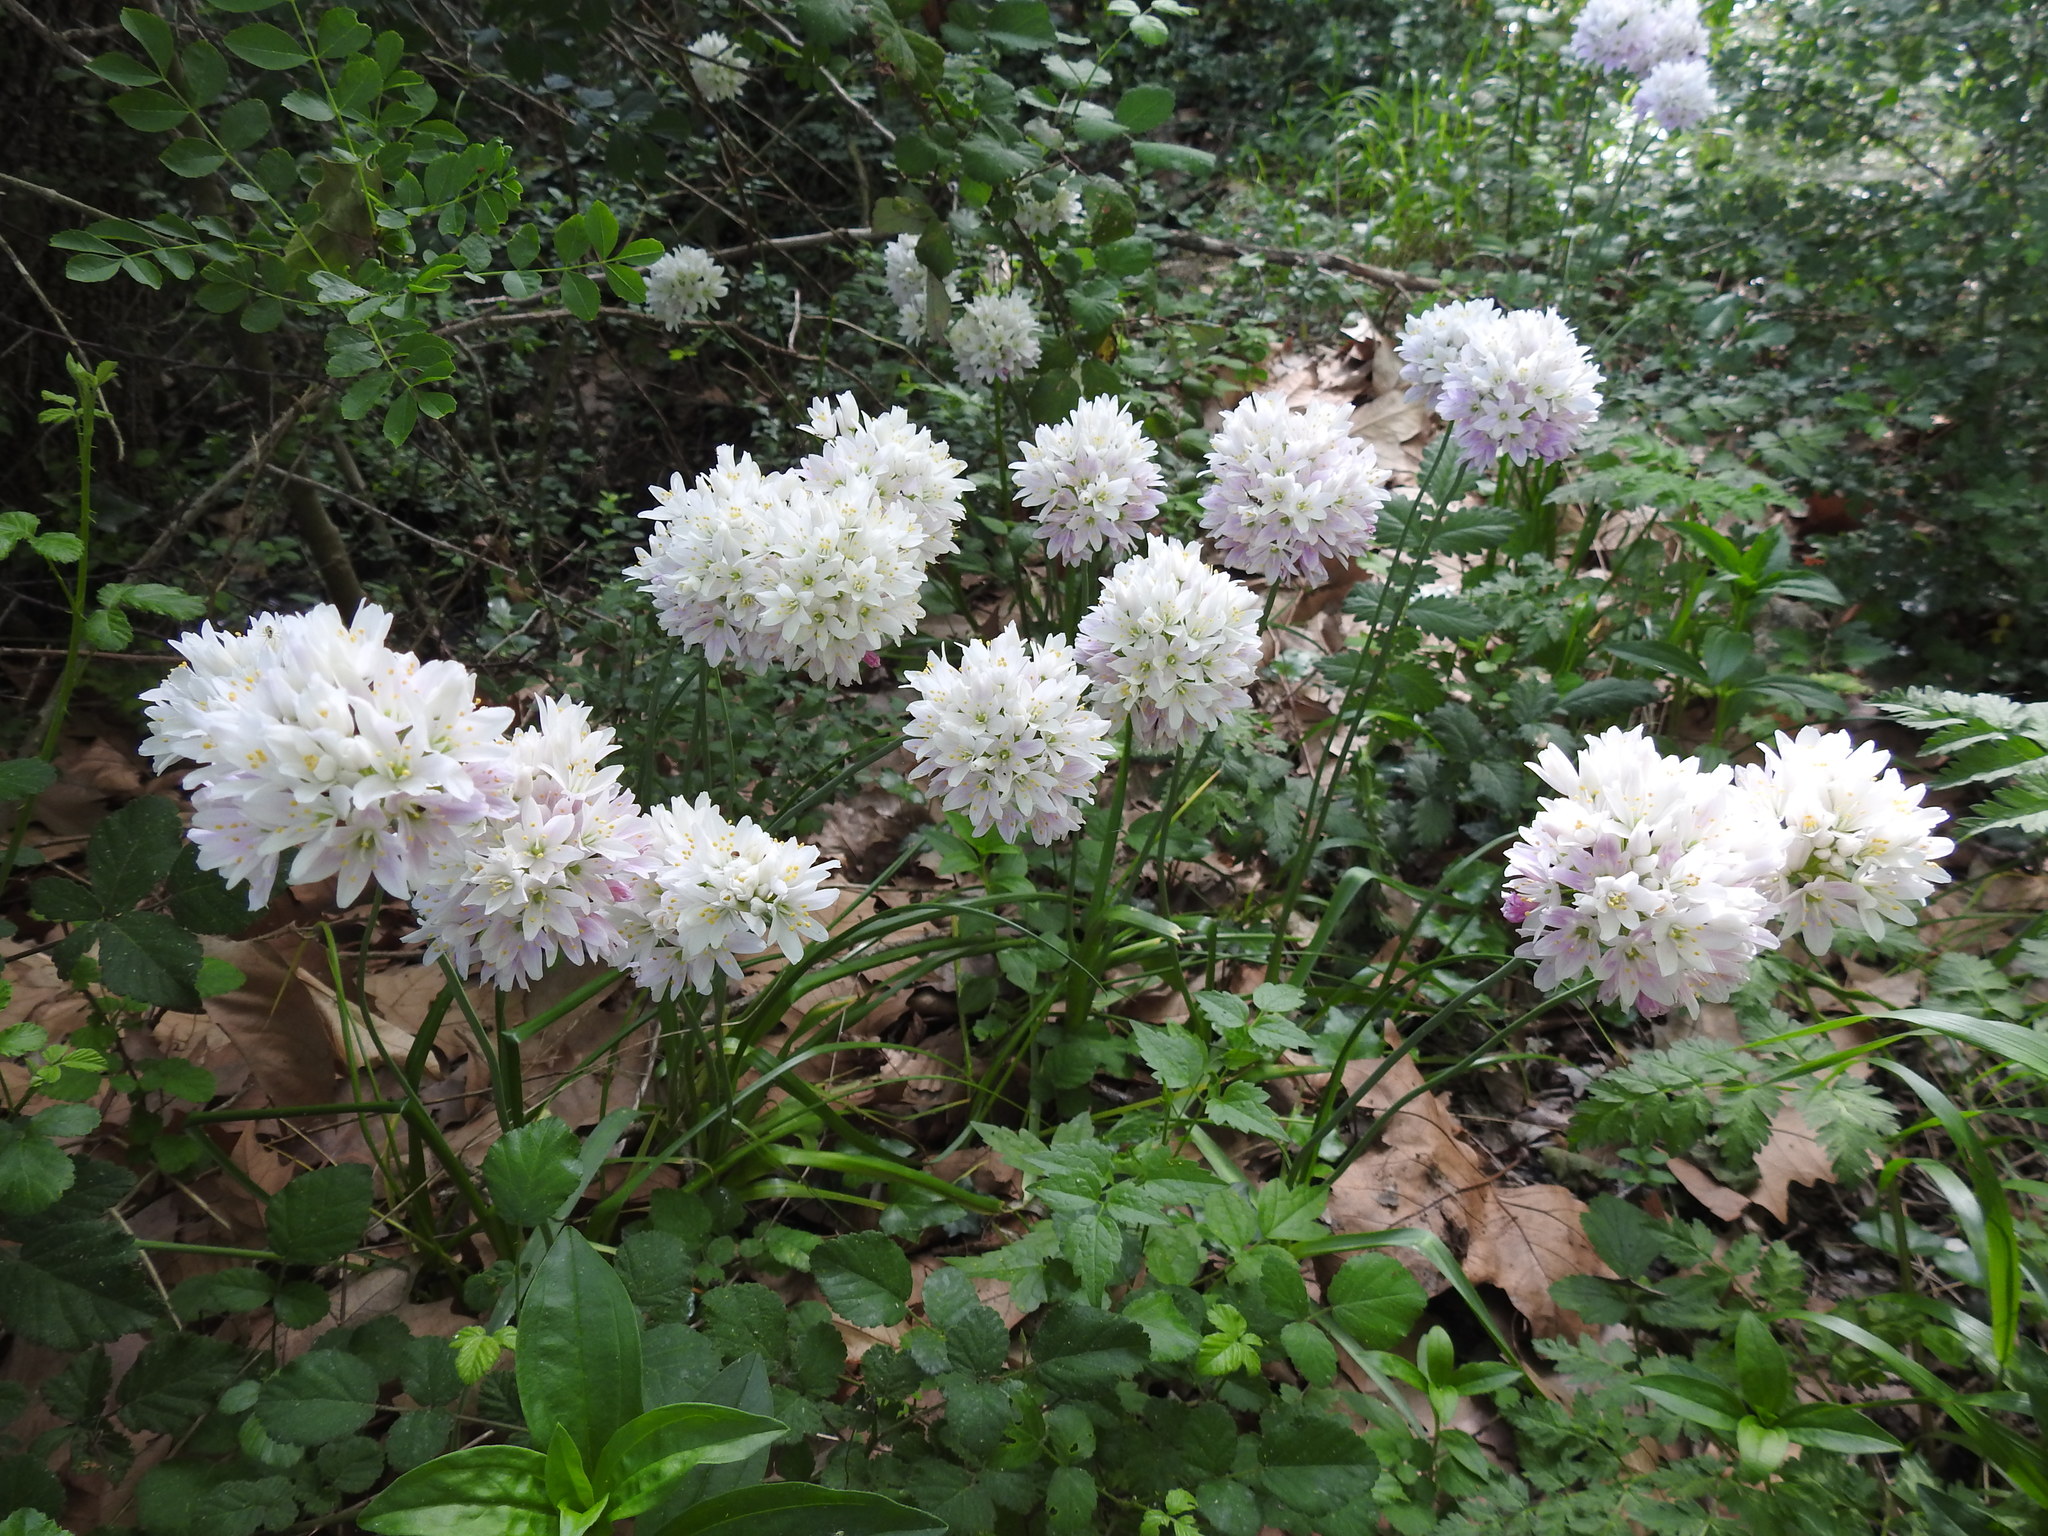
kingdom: Plantae
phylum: Tracheophyta
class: Liliopsida
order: Asparagales
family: Amaryllidaceae
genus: Allium
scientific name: Allium roseum
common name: Rosy garlic
